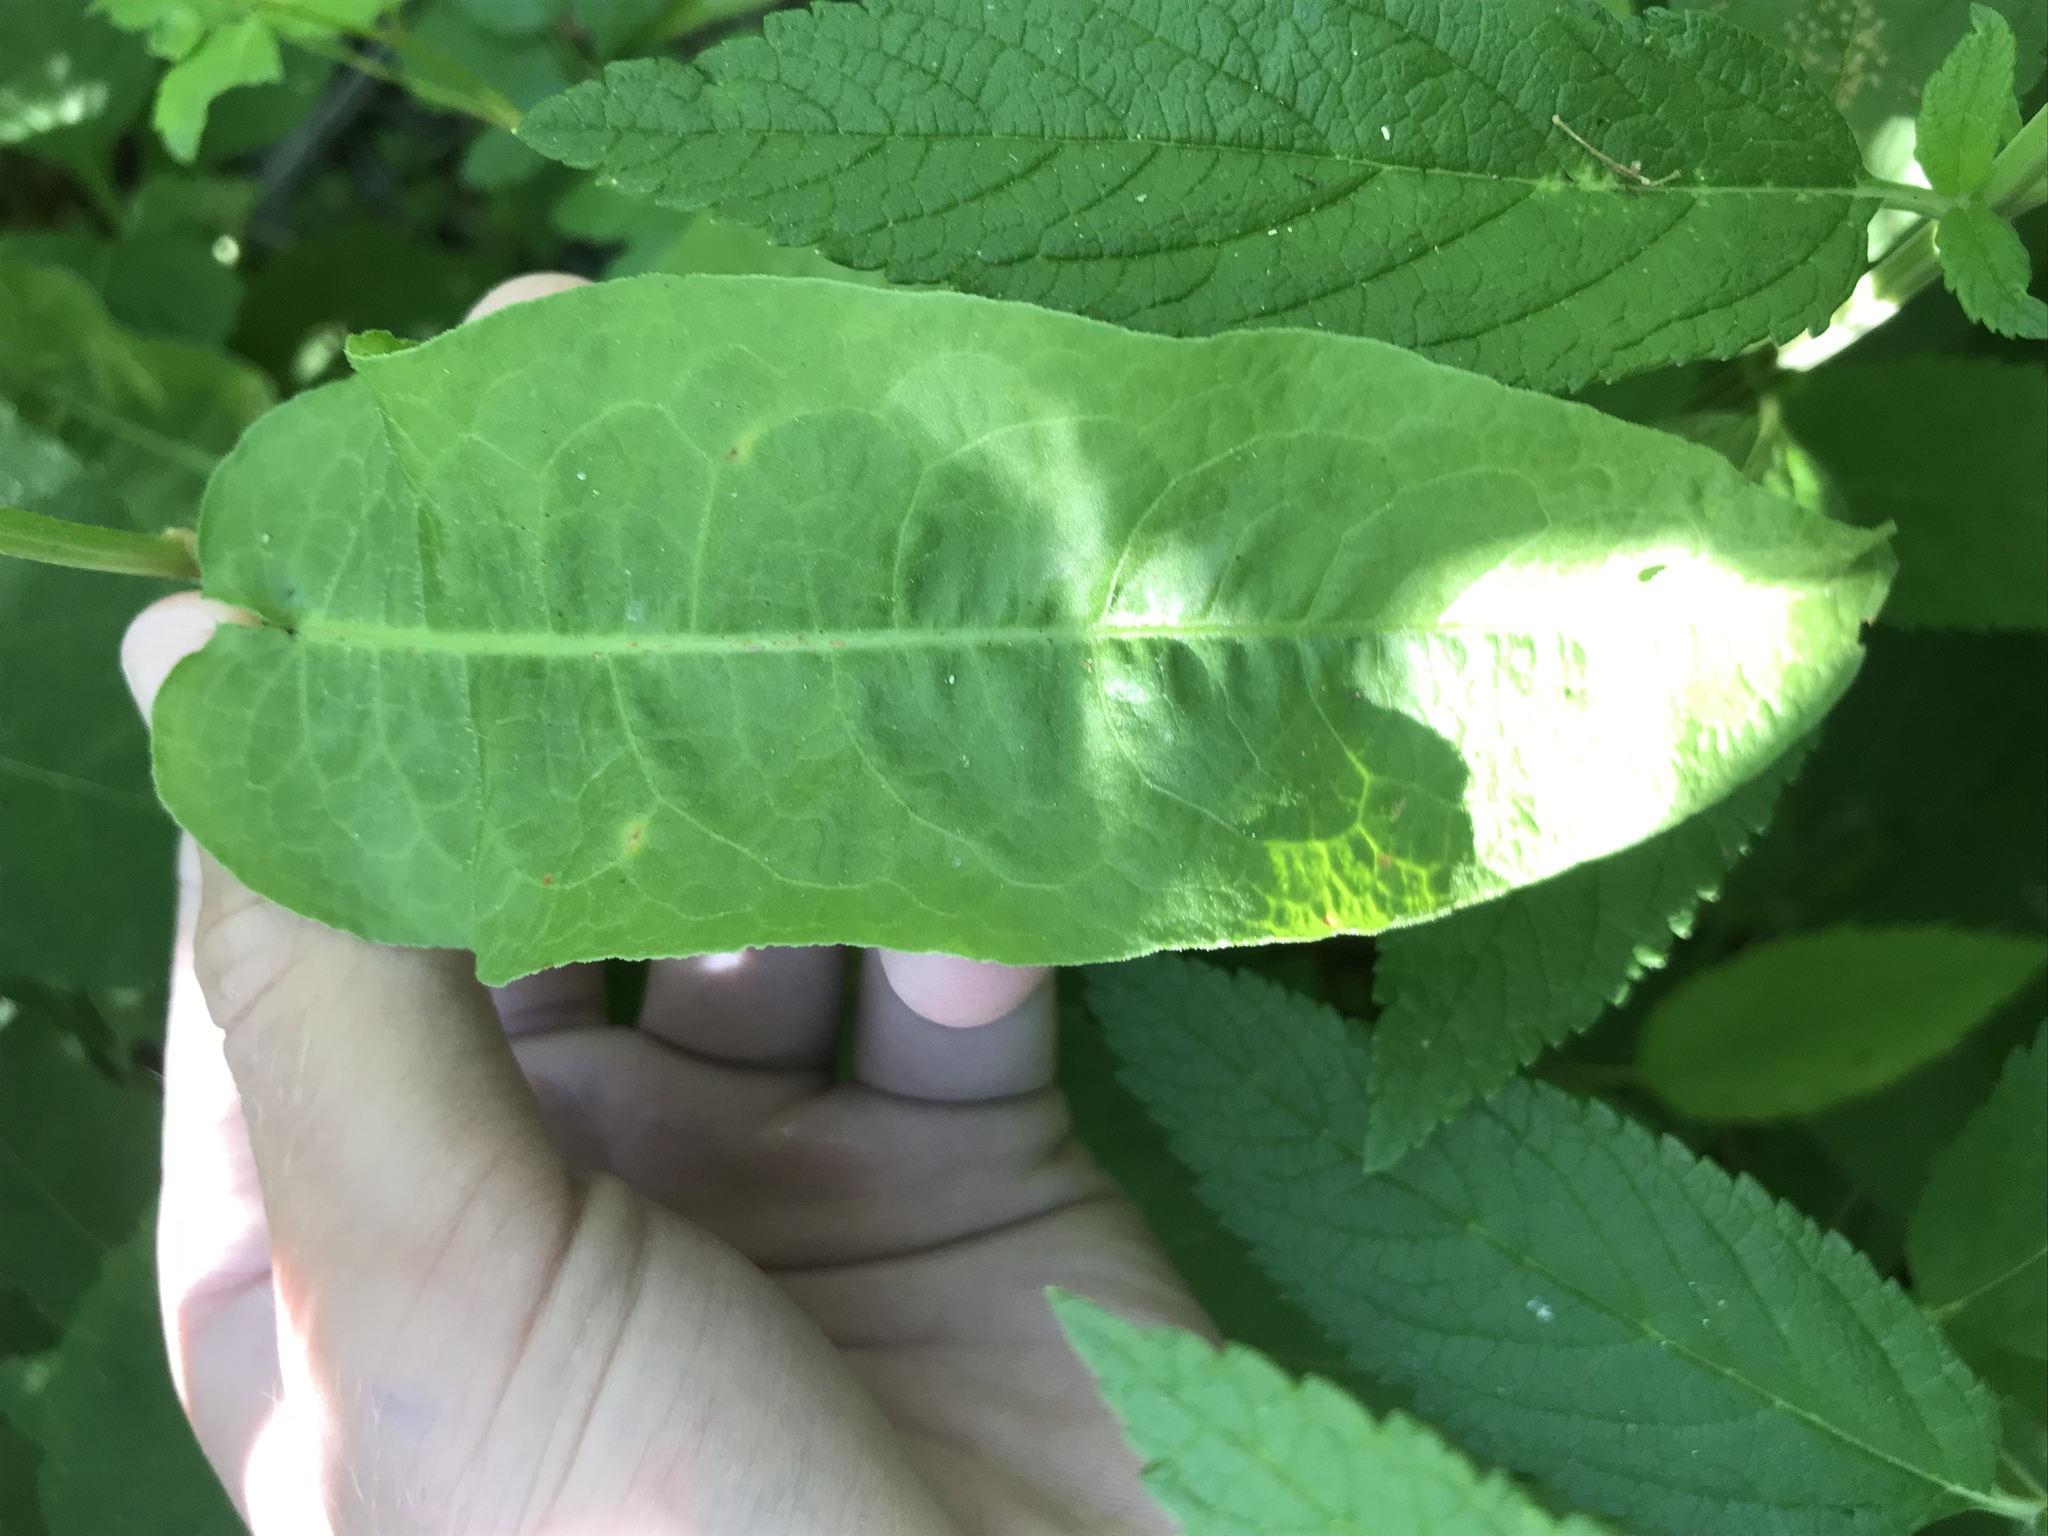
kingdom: Plantae
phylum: Tracheophyta
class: Magnoliopsida
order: Caryophyllales
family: Polygonaceae
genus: Rumex
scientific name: Rumex pulcher
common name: Fiddle dock
